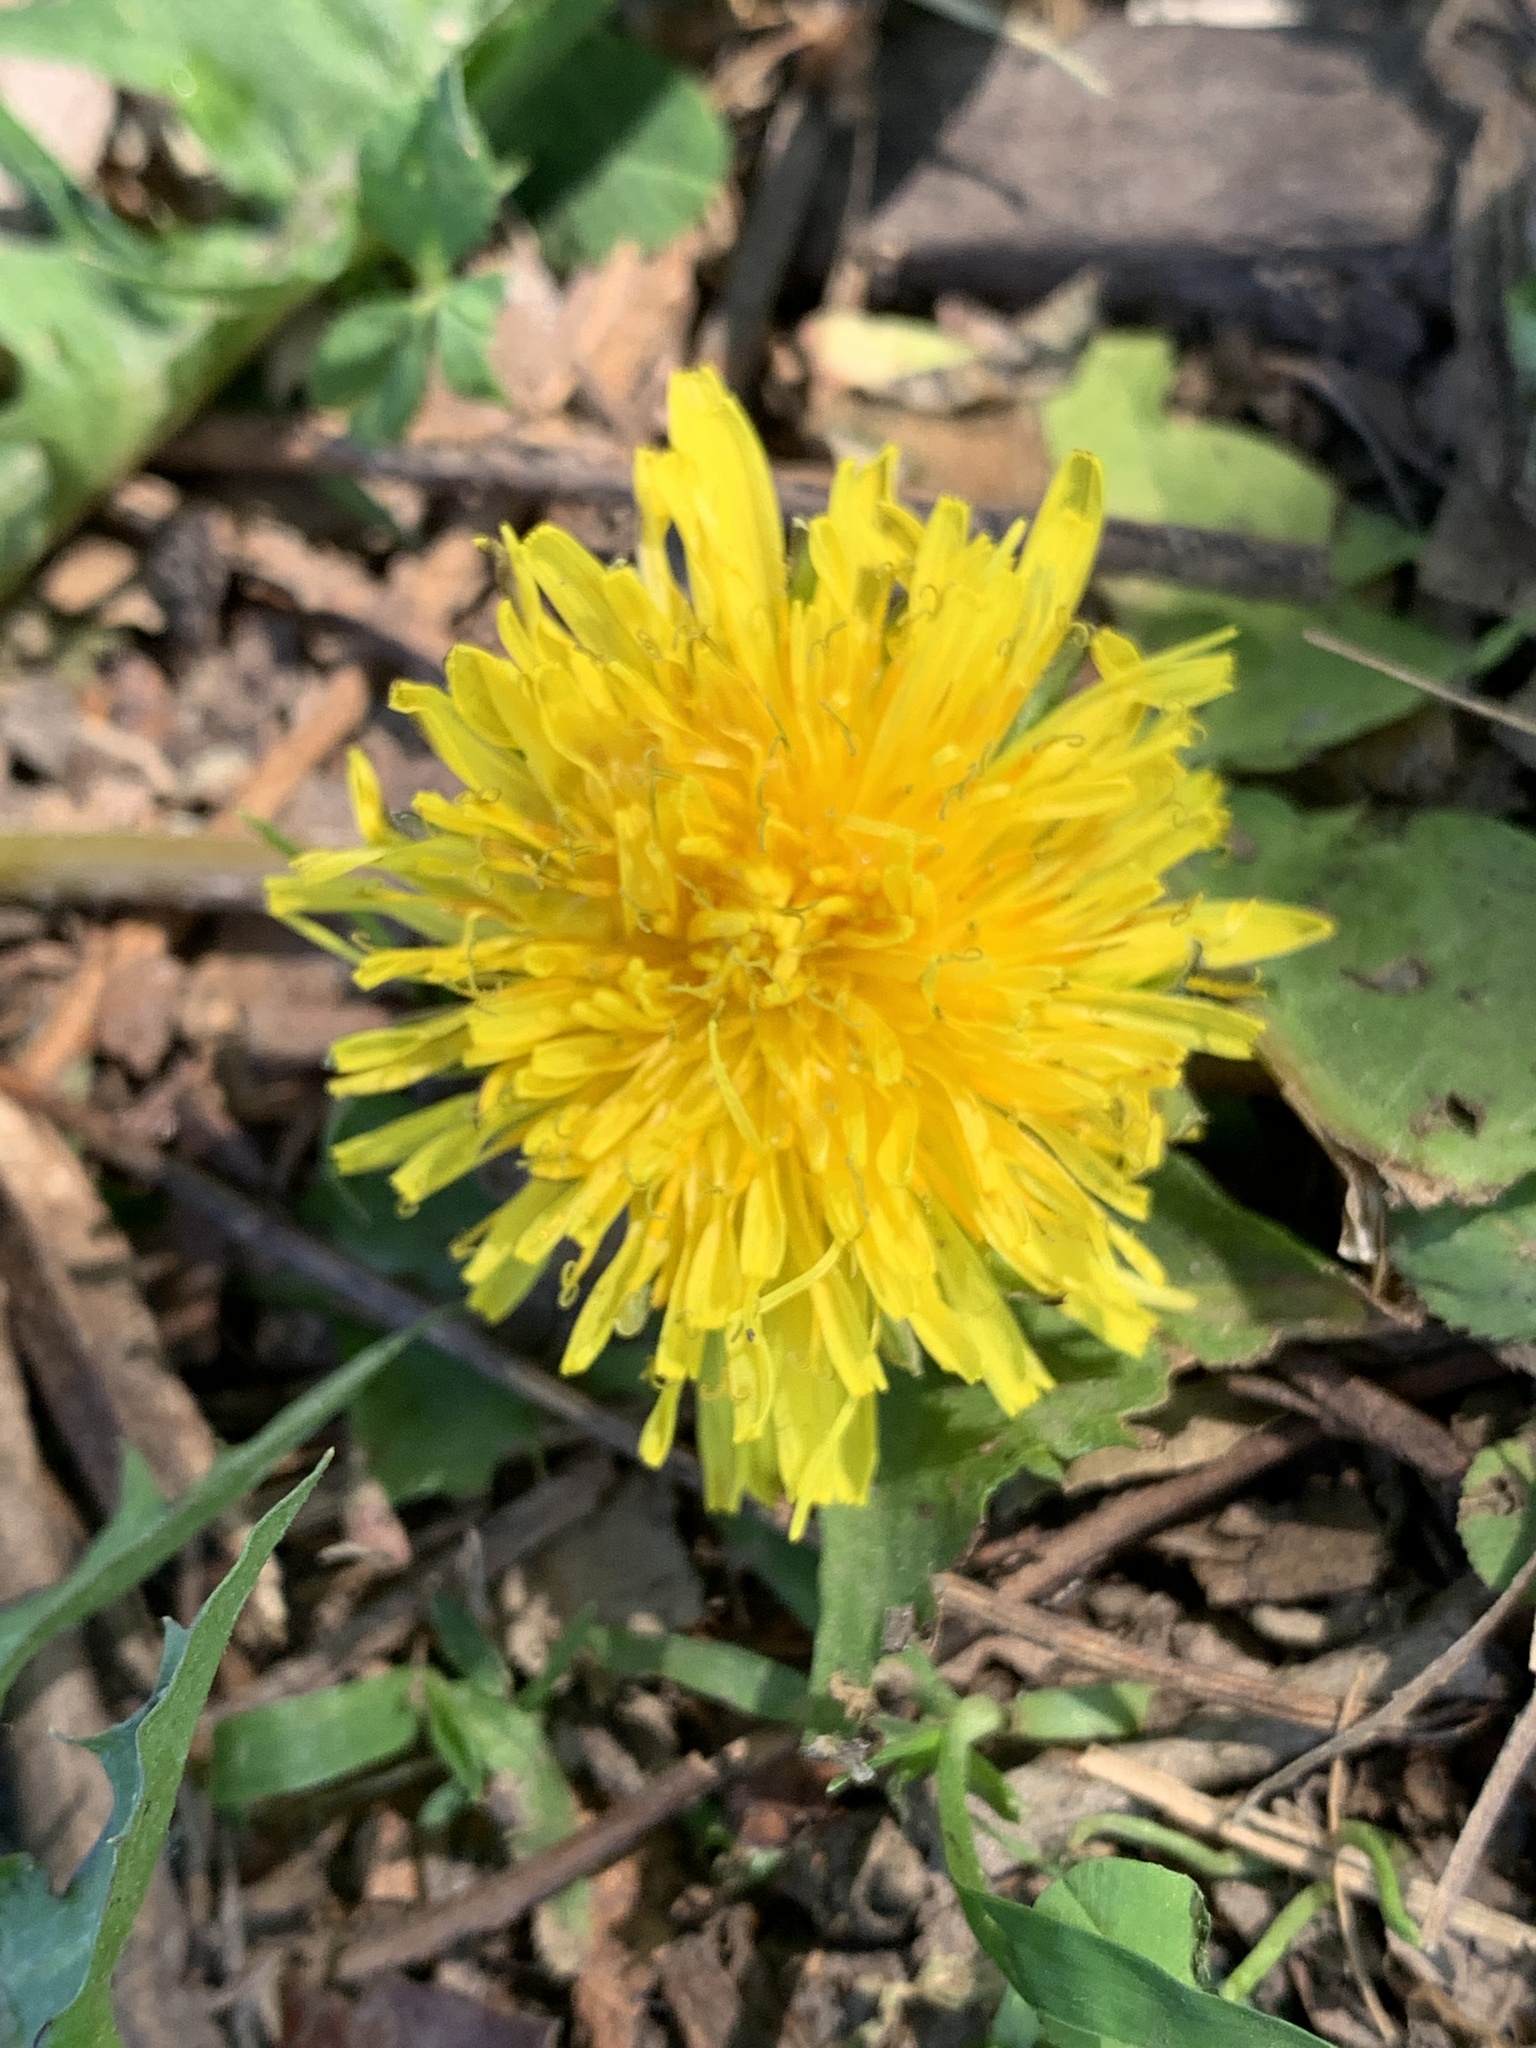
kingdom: Plantae
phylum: Tracheophyta
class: Magnoliopsida
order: Asterales
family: Asteraceae
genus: Taraxacum
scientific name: Taraxacum officinale
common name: Common dandelion
